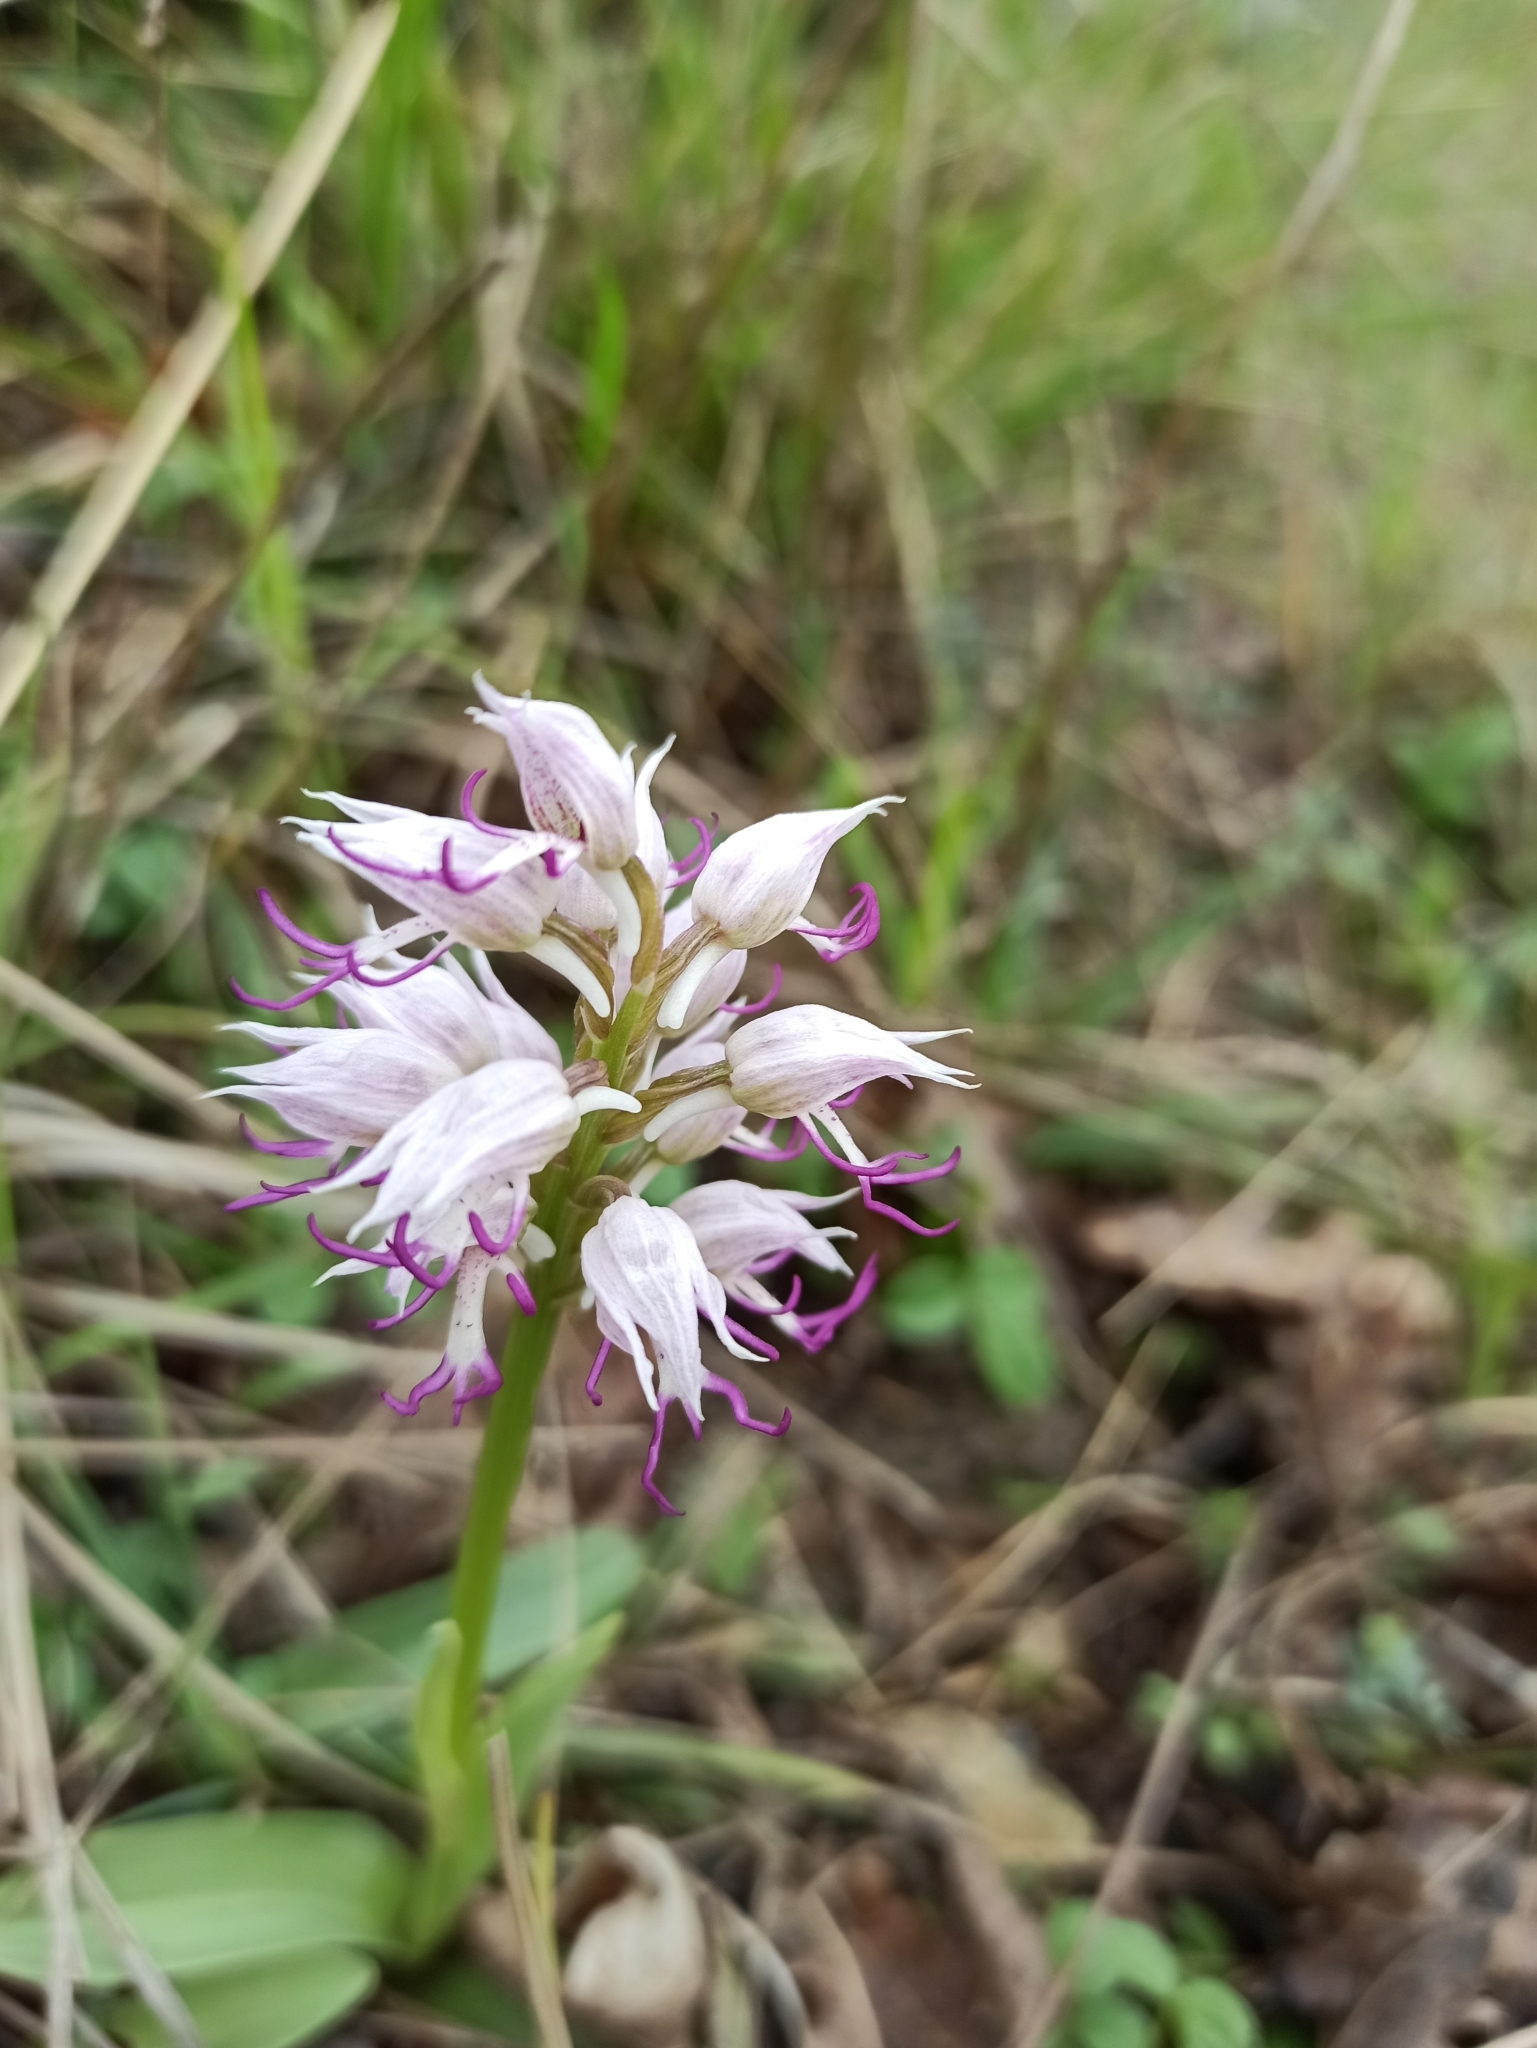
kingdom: Plantae
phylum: Tracheophyta
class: Liliopsida
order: Asparagales
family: Orchidaceae
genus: Orchis
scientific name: Orchis simia
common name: Monkey orchid
